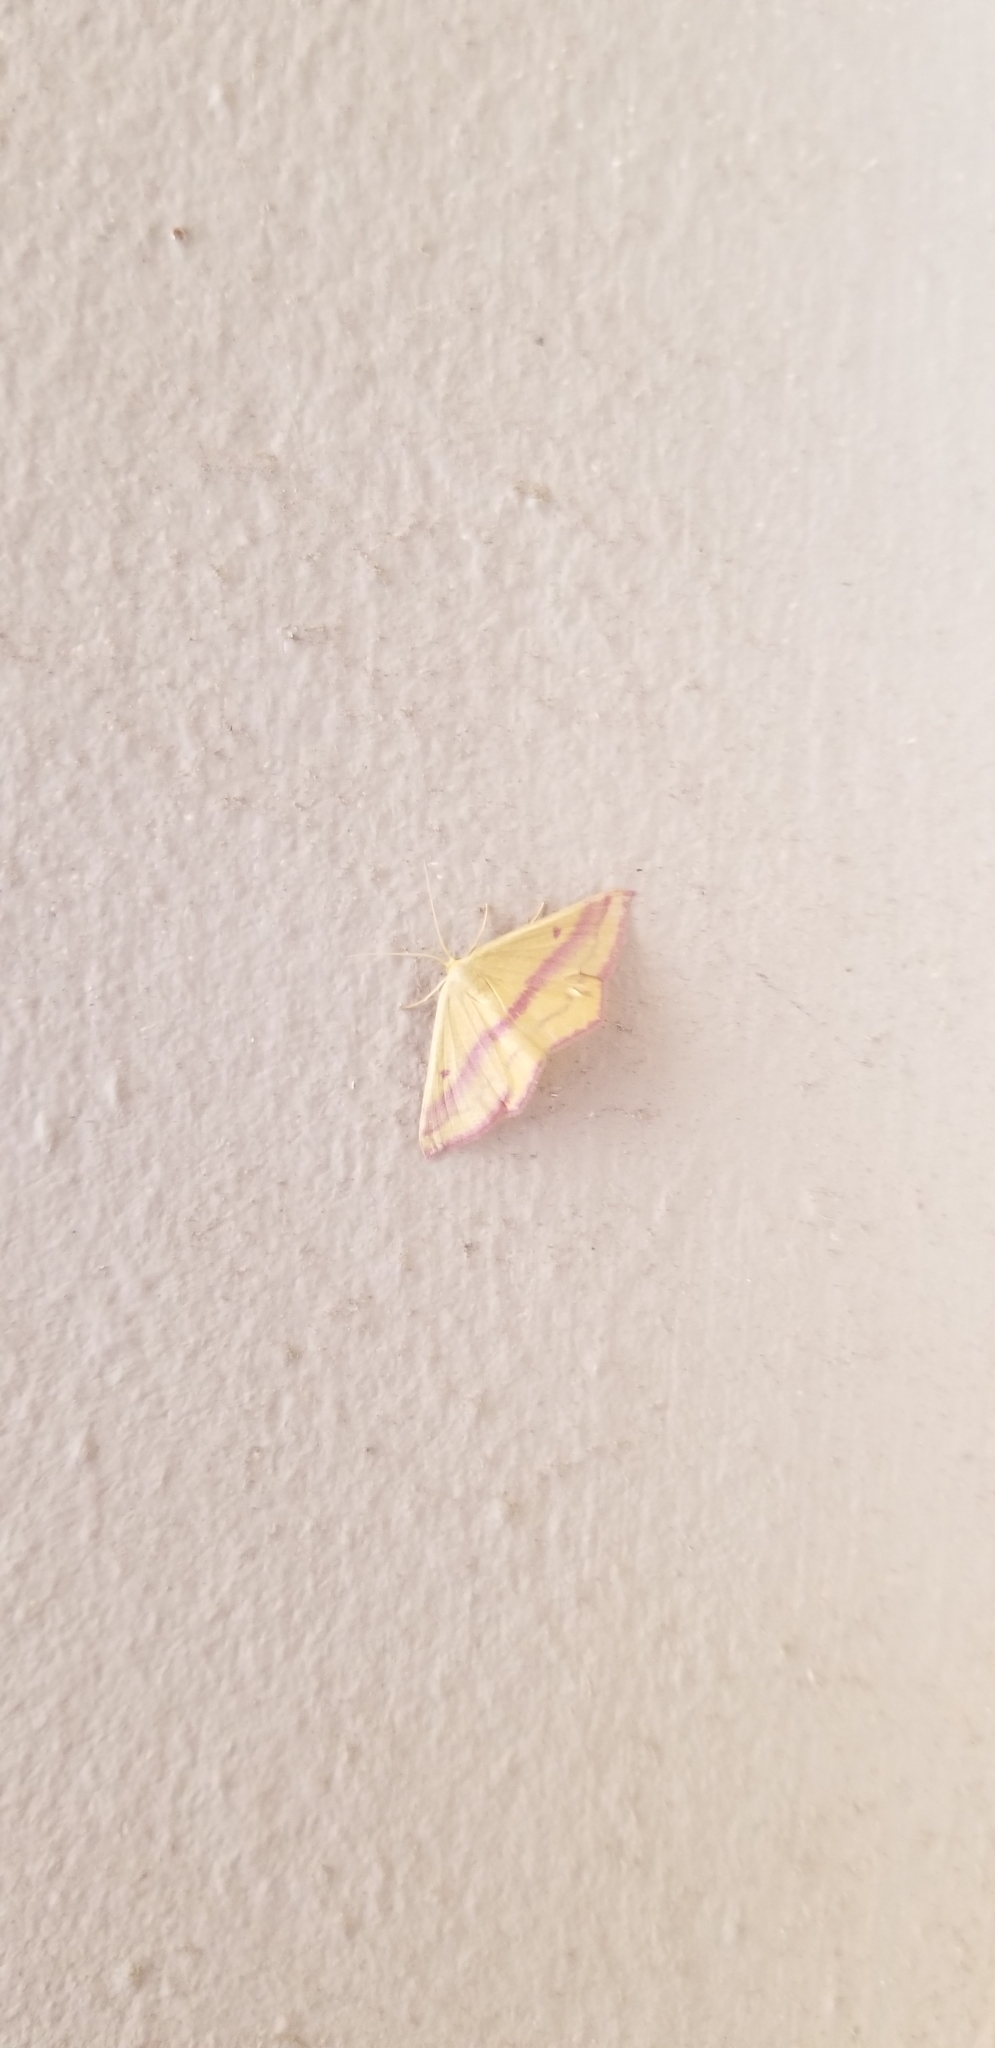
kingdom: Animalia
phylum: Arthropoda
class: Insecta
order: Lepidoptera
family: Geometridae
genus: Haematopis
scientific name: Haematopis grataria
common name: Chickweed geometer
